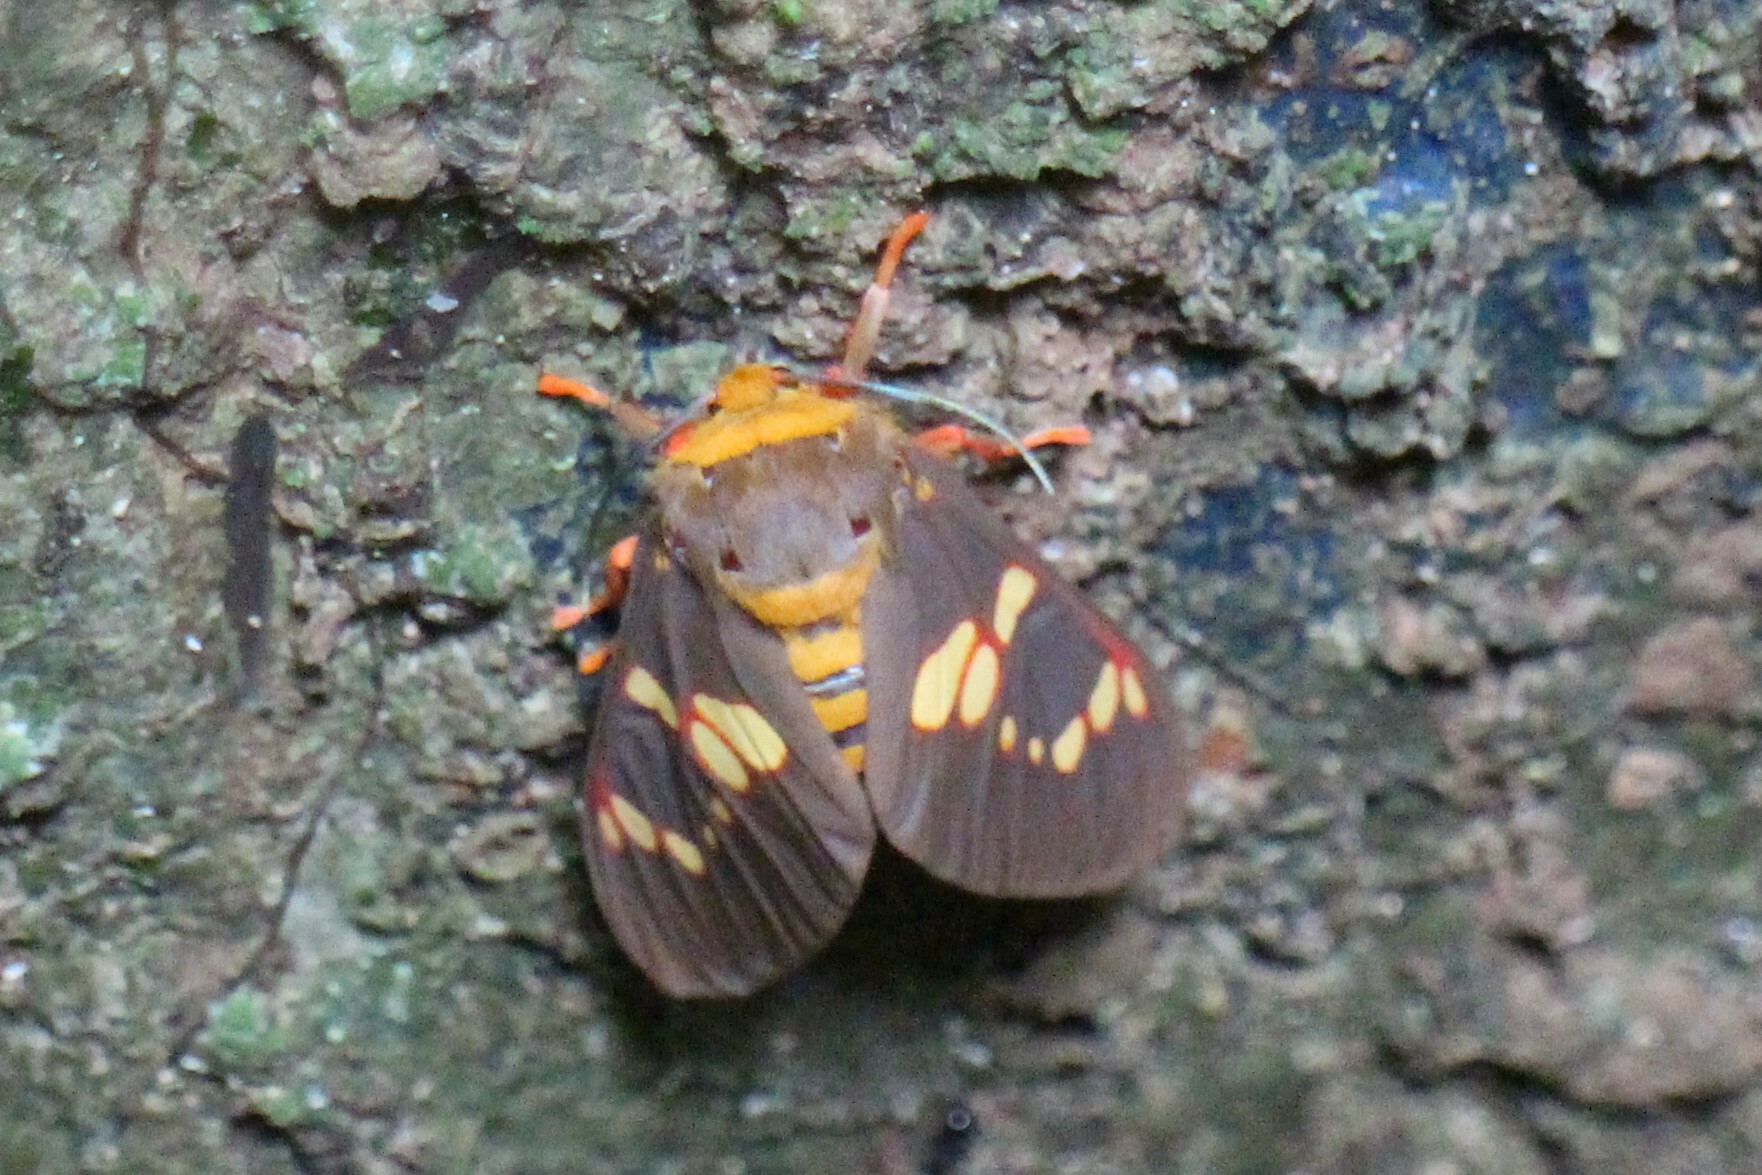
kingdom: Animalia
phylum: Arthropoda
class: Insecta
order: Lepidoptera
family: Erebidae
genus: Balacra
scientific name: Balacra batesi
